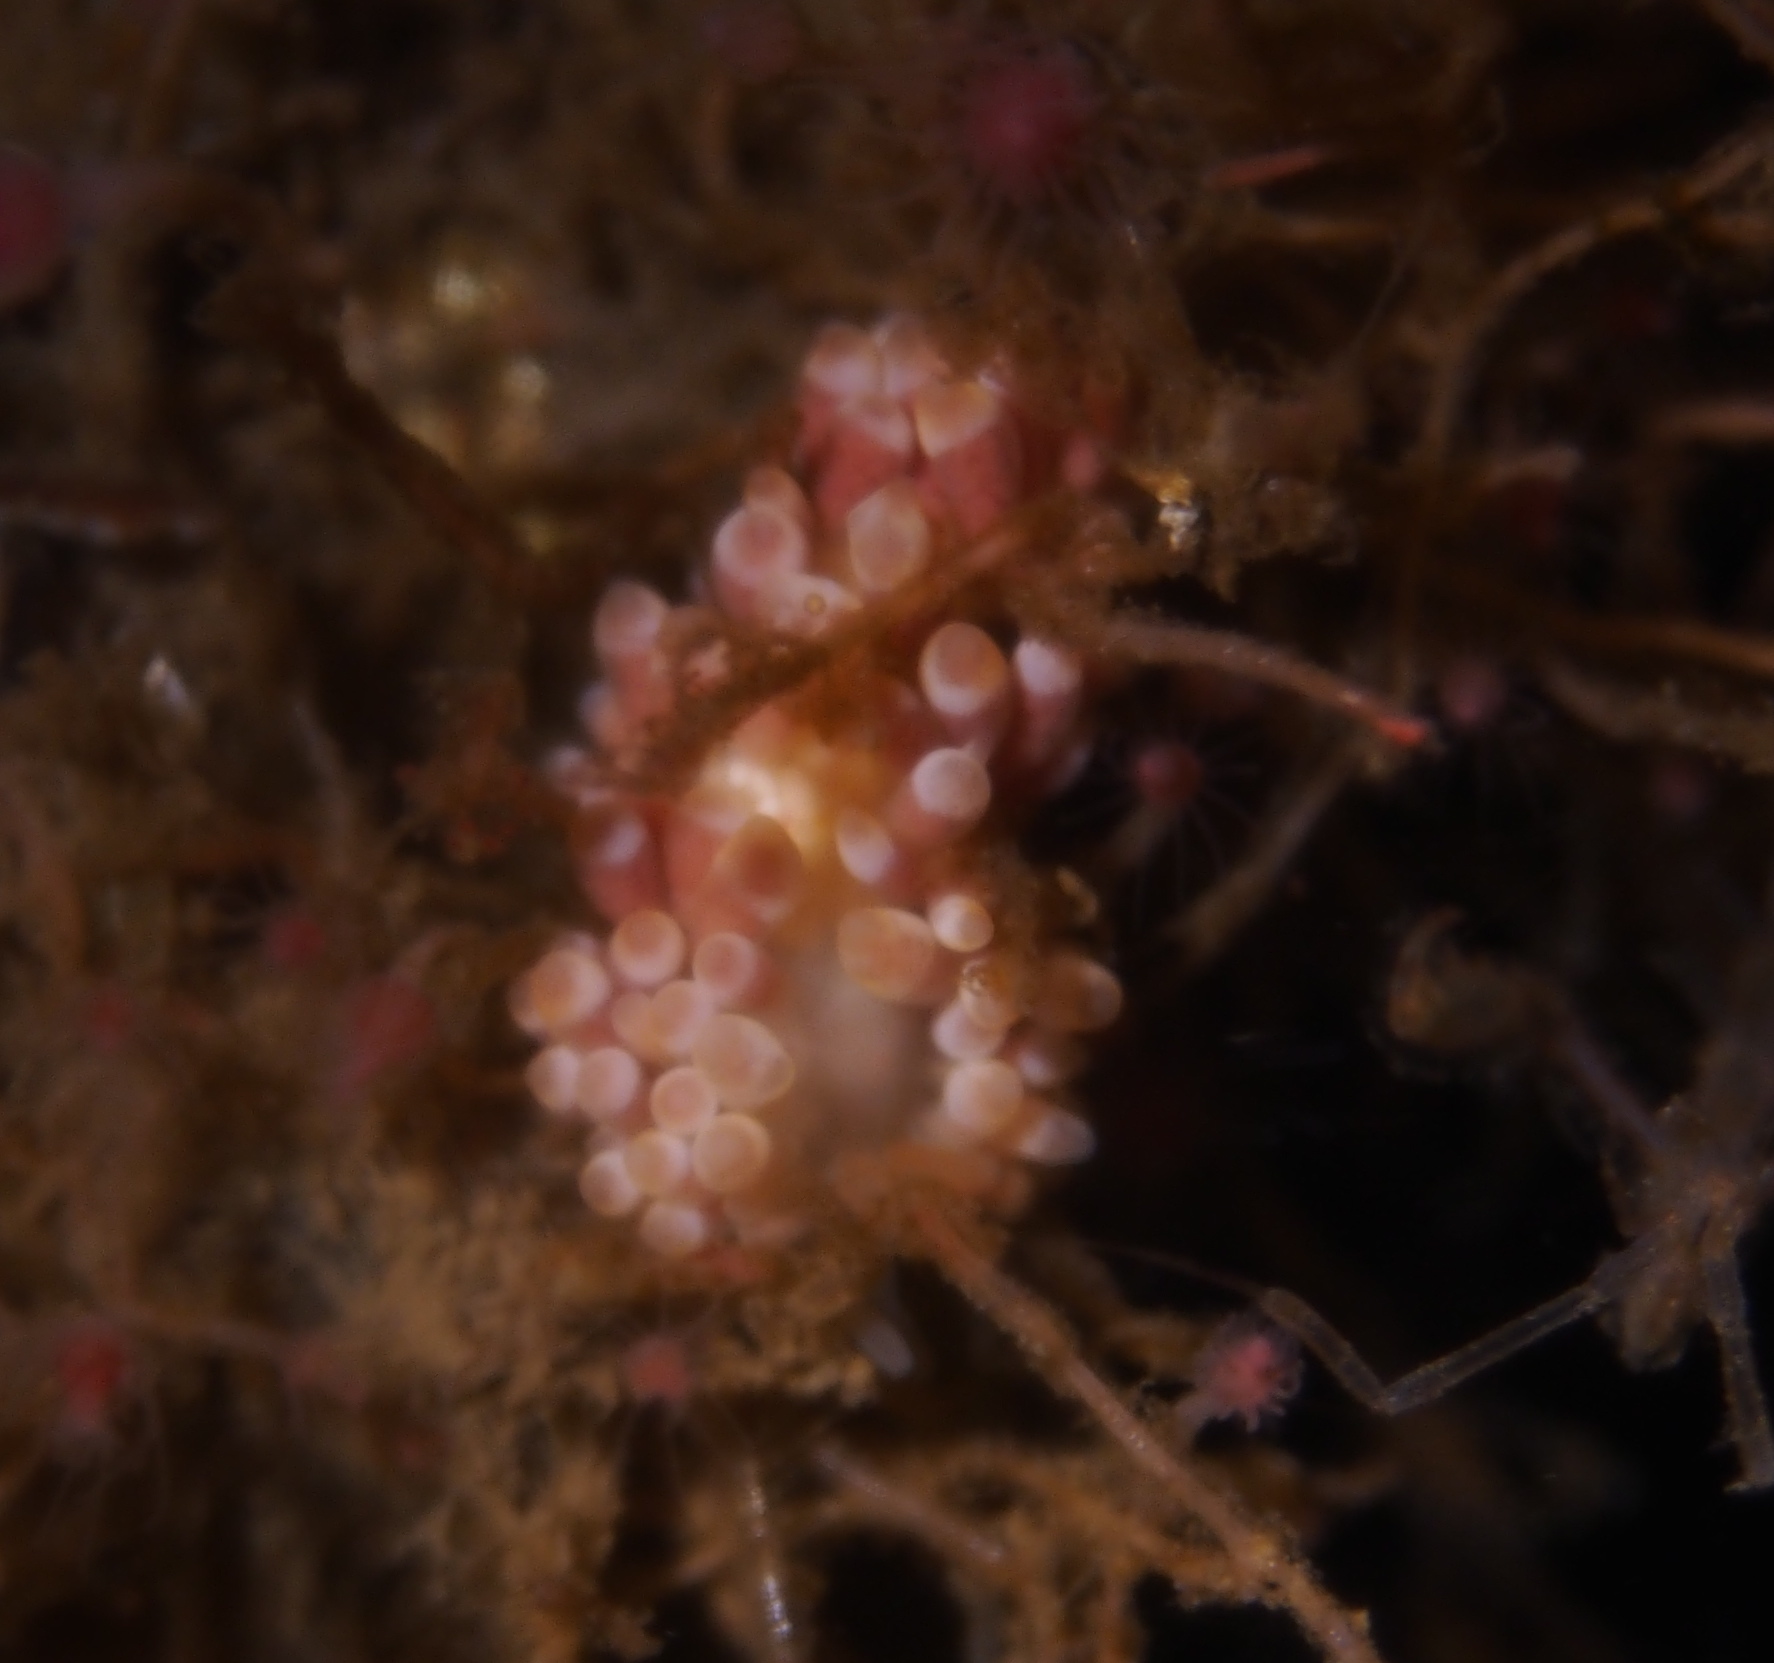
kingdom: Animalia
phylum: Mollusca
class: Gastropoda
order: Nudibranchia
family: Trinchesiidae
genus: Catriona
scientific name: Catriona aurantia
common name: Corange-tip cuthona
